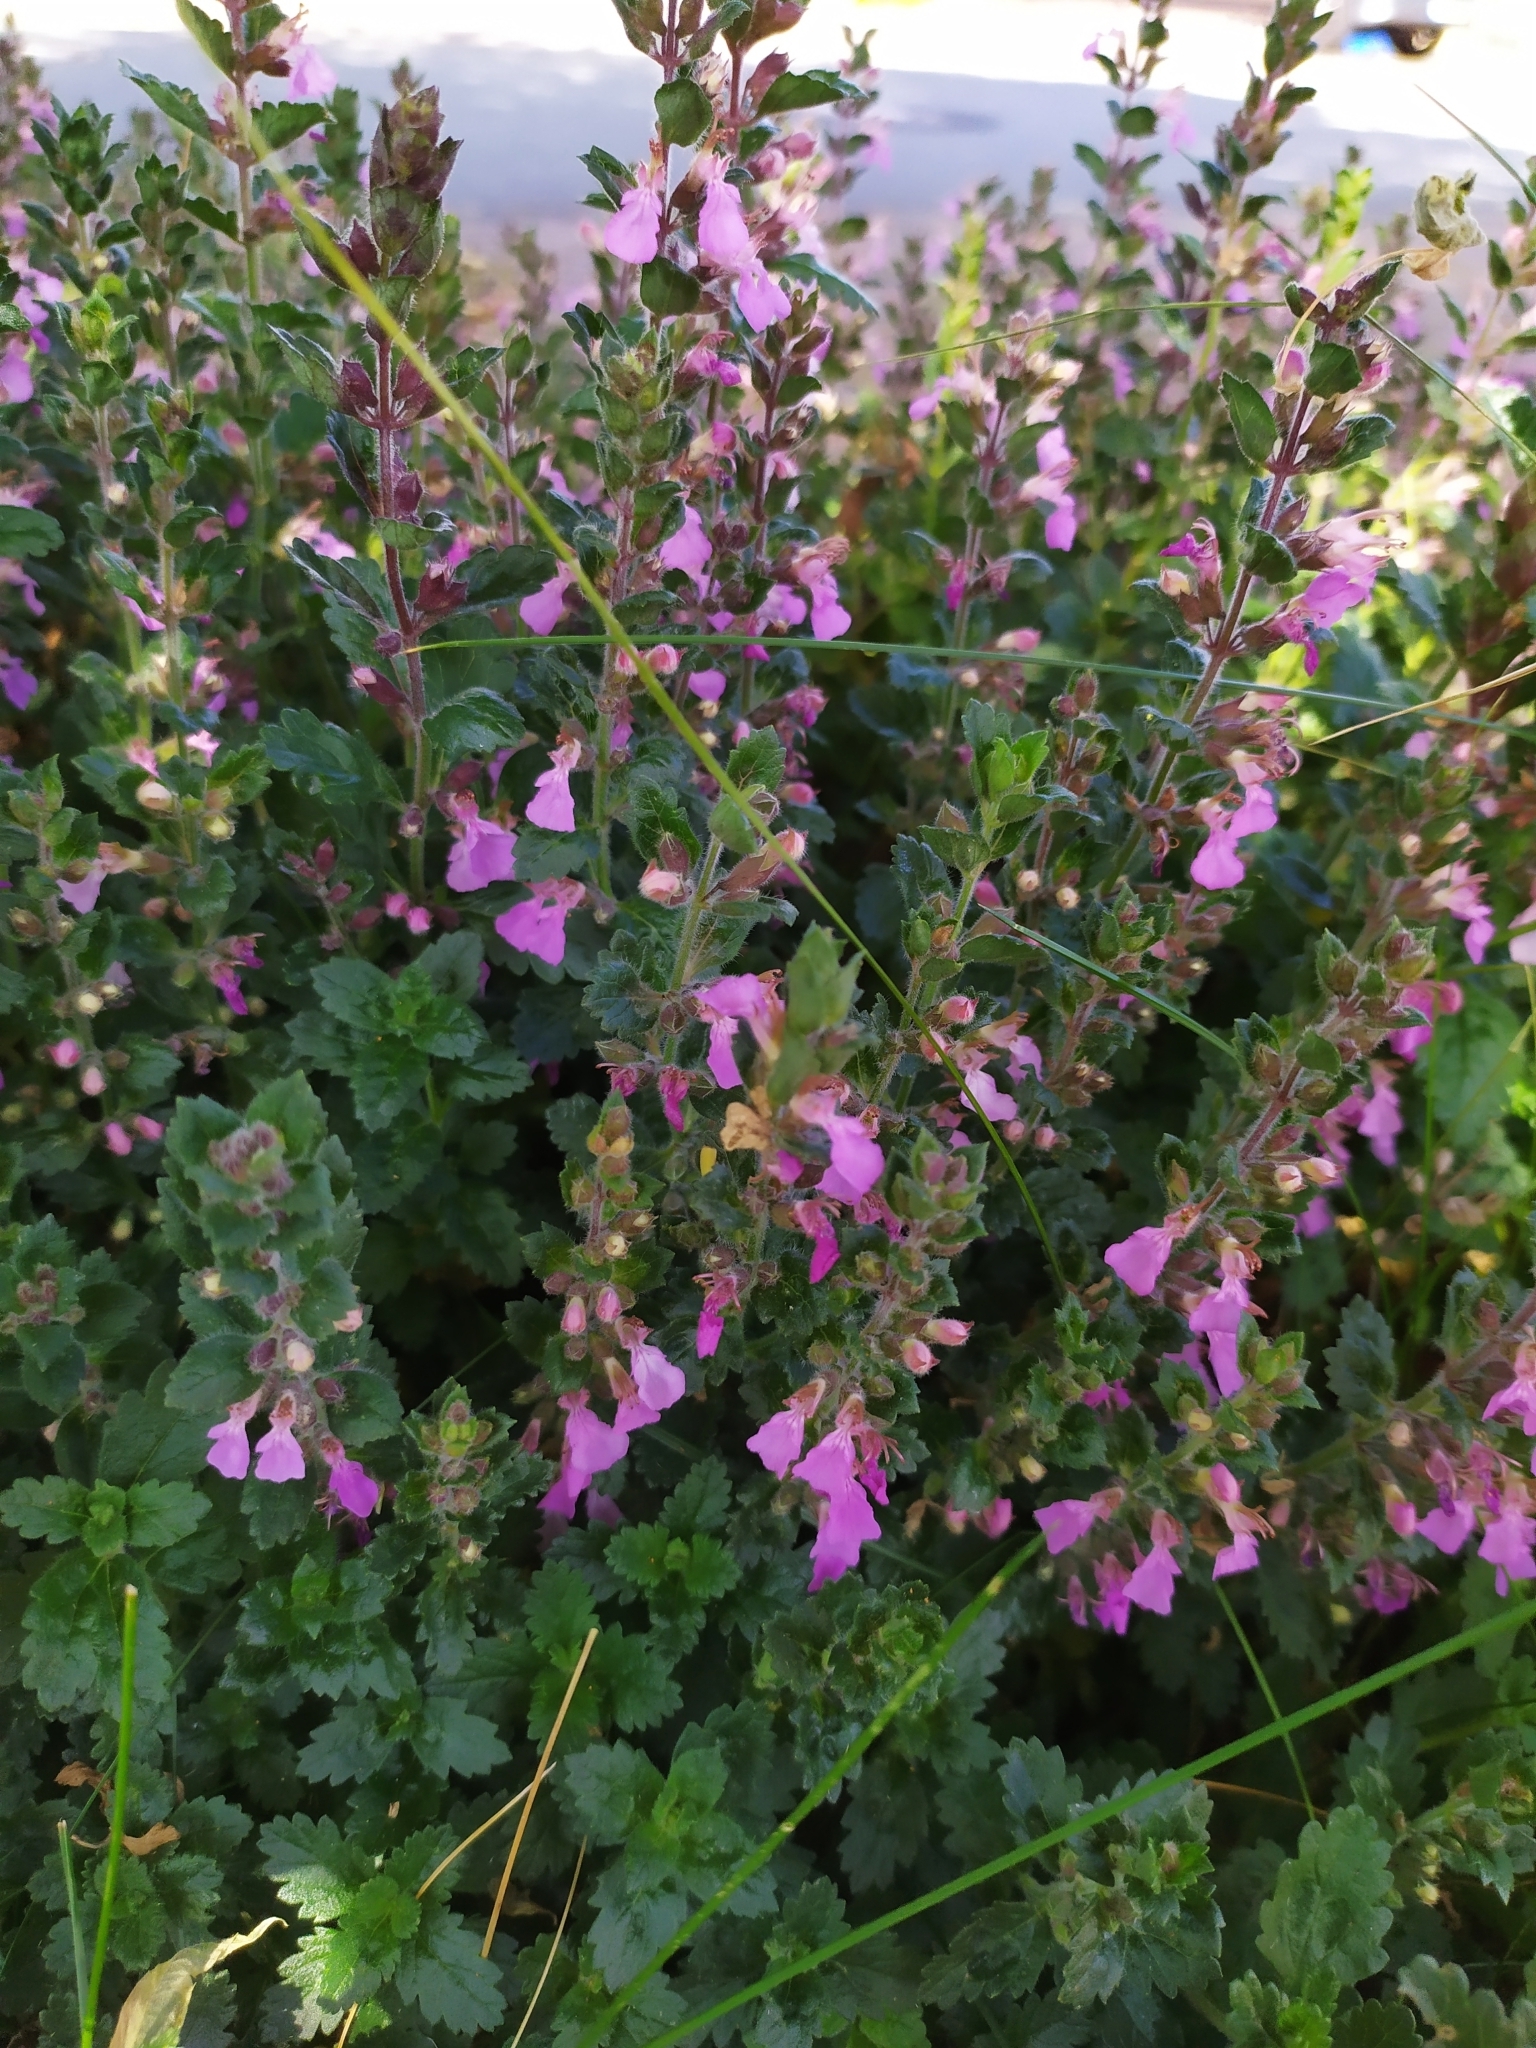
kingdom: Plantae
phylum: Tracheophyta
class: Magnoliopsida
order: Lamiales
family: Lamiaceae
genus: Teucrium
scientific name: Teucrium chamaedrys
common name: Wall germander
